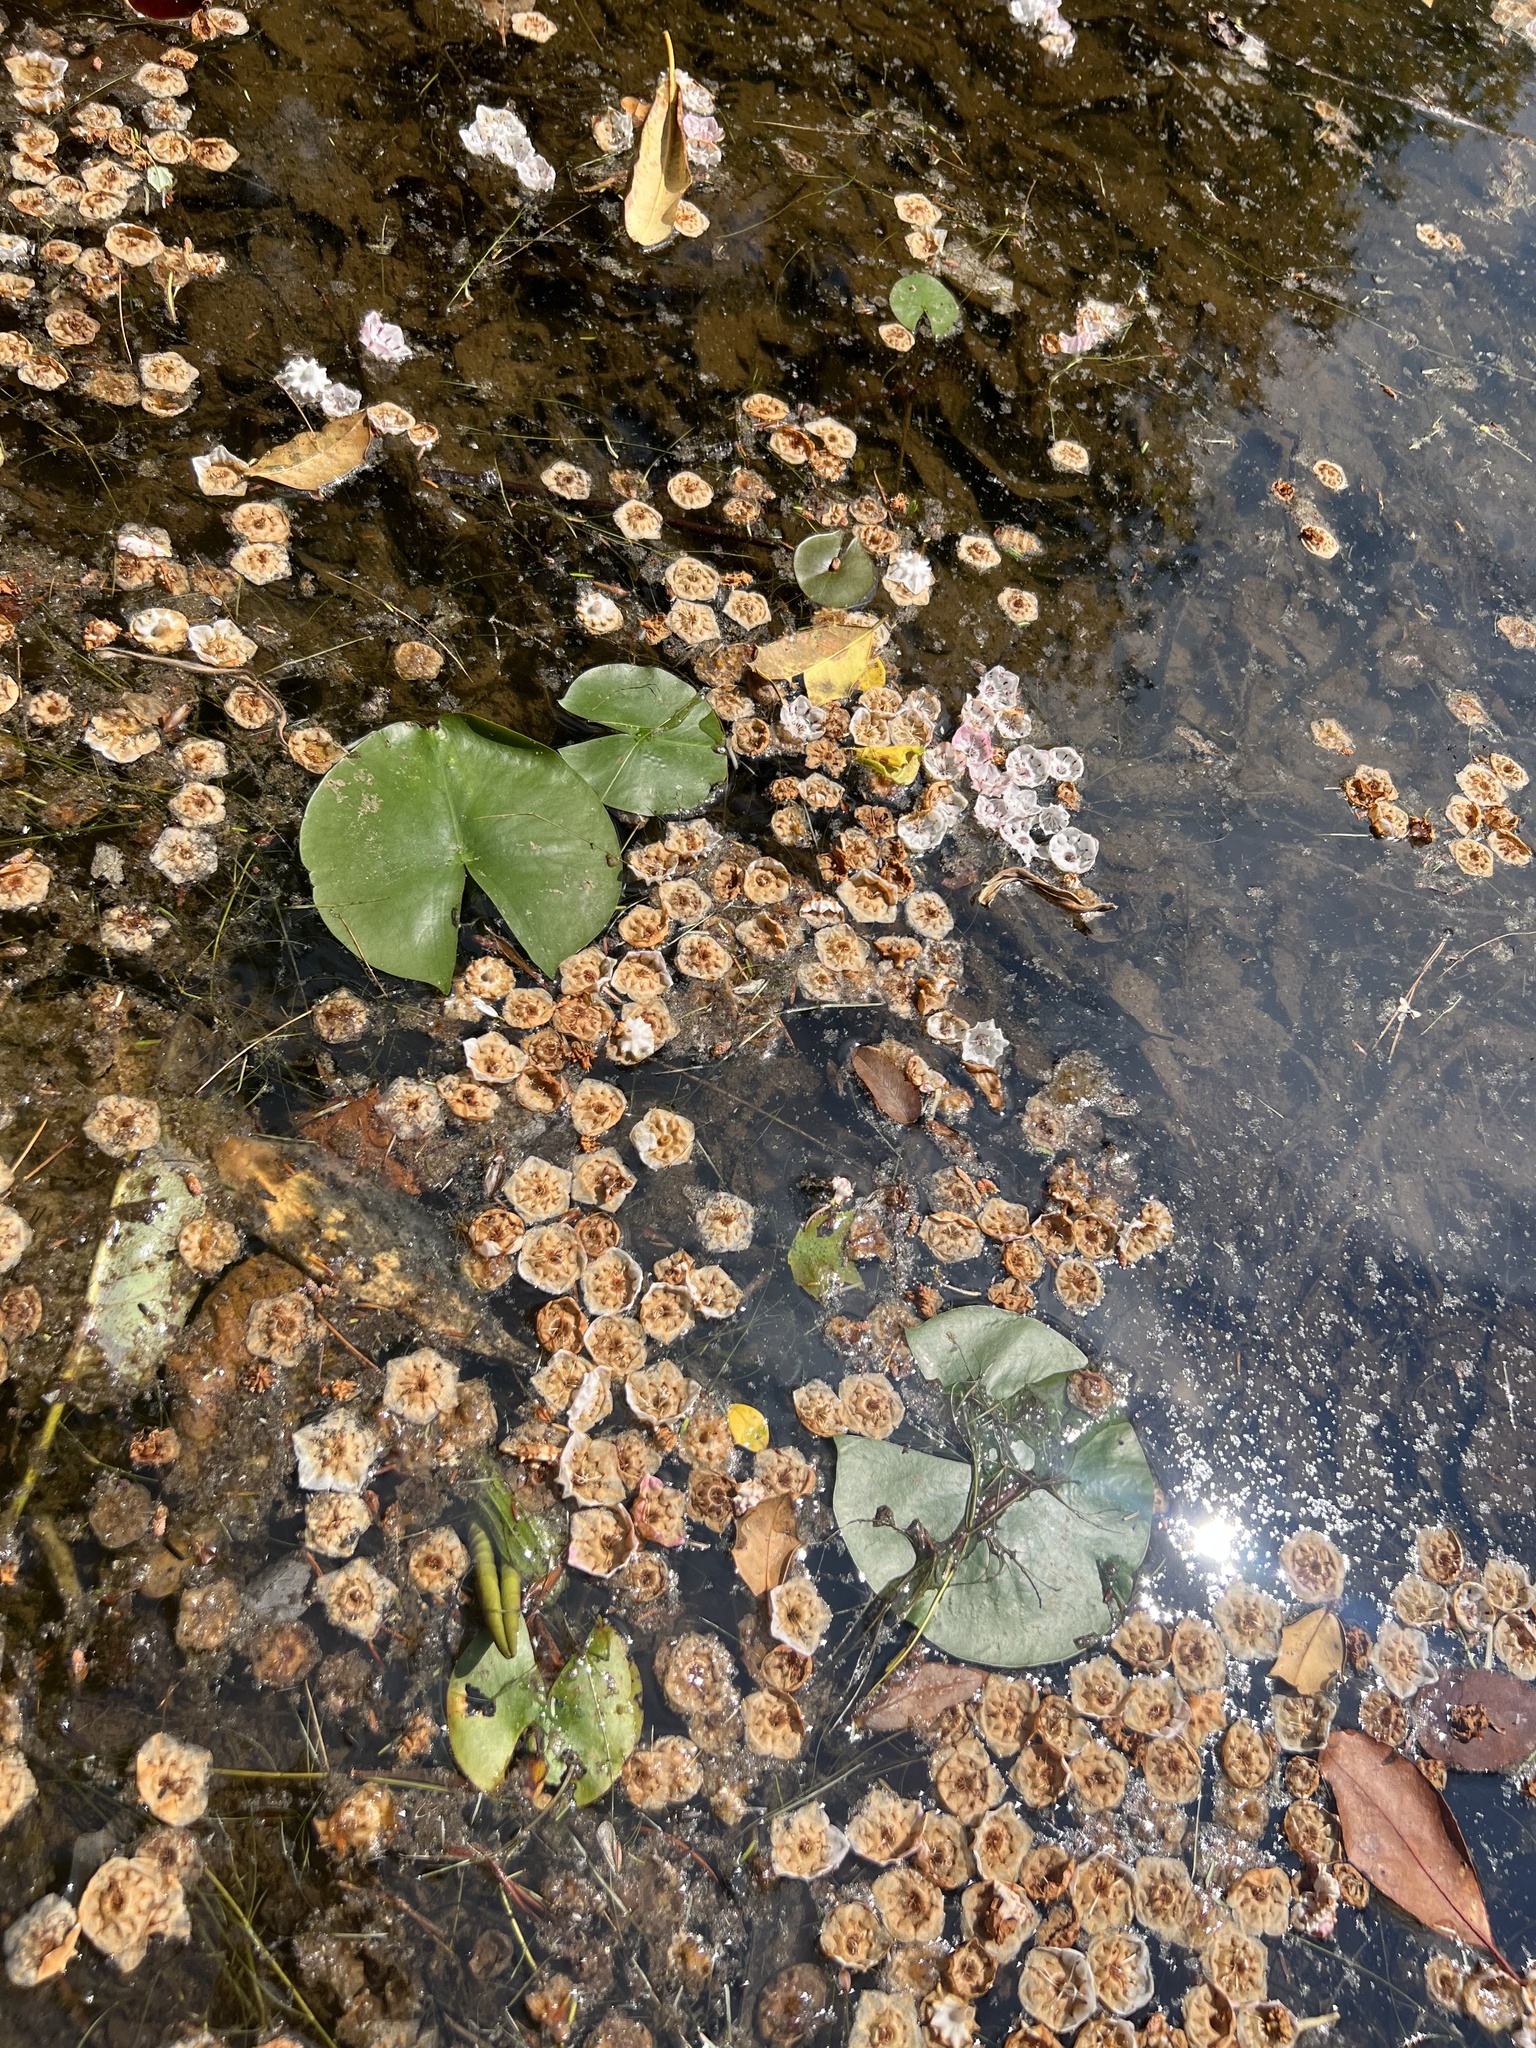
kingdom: Plantae
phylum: Tracheophyta
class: Magnoliopsida
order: Nymphaeales
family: Nymphaeaceae
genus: Nymphaea
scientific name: Nymphaea odorata
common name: Fragrant water-lily
